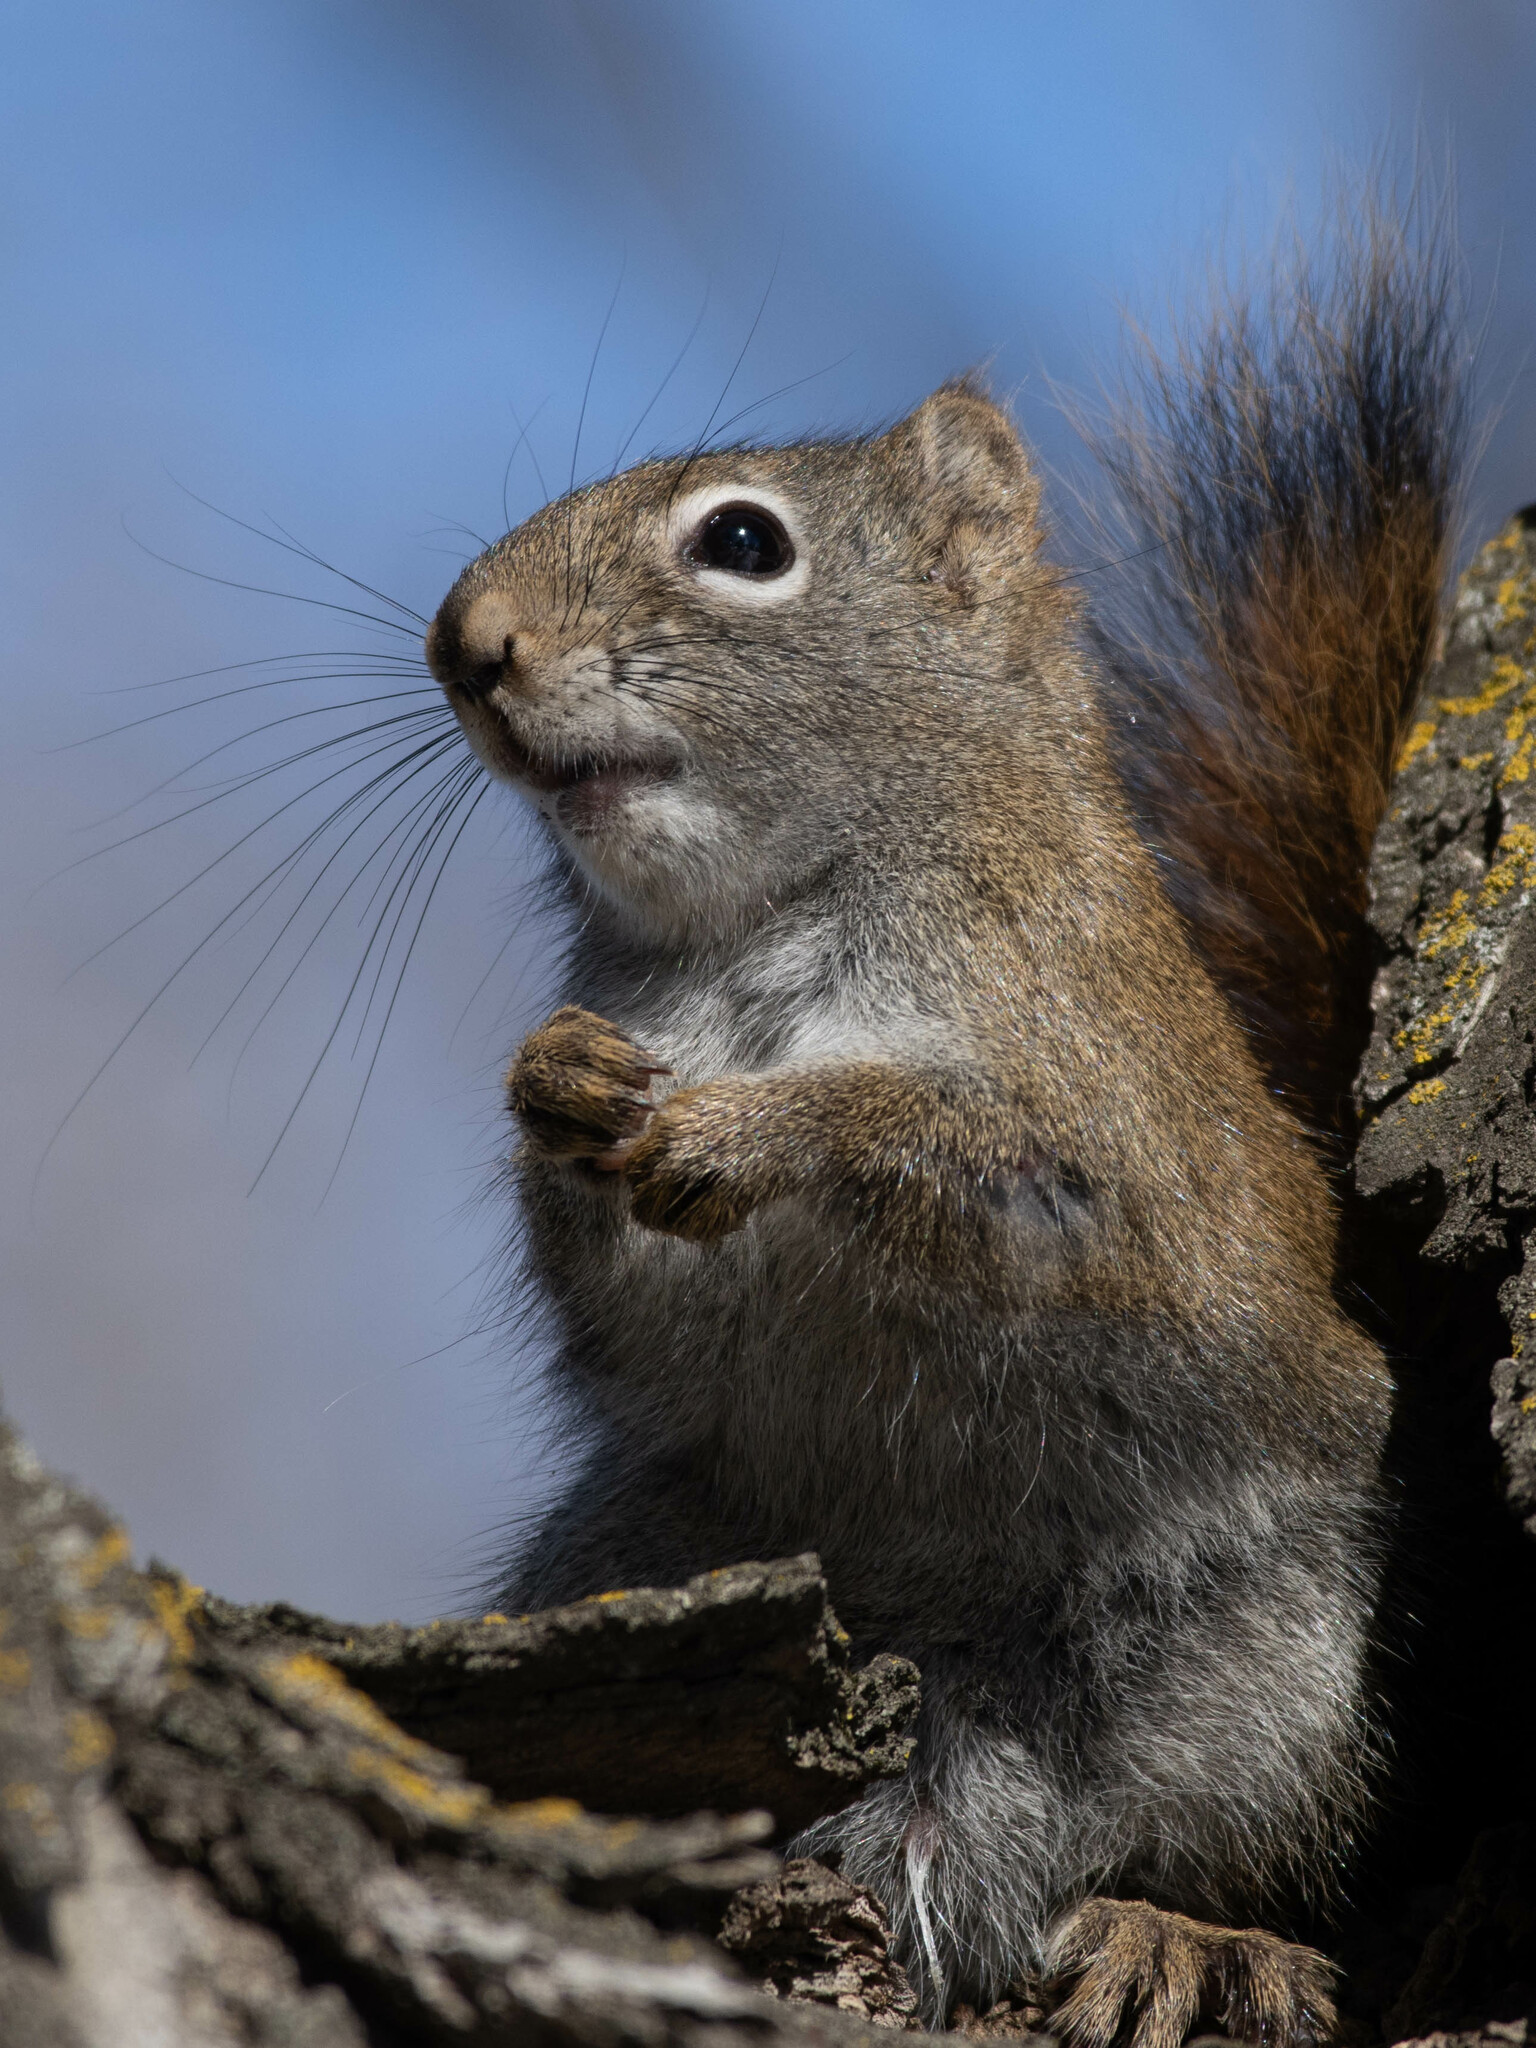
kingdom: Animalia
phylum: Chordata
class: Mammalia
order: Rodentia
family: Sciuridae
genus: Tamiasciurus
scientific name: Tamiasciurus hudsonicus
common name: Red squirrel
